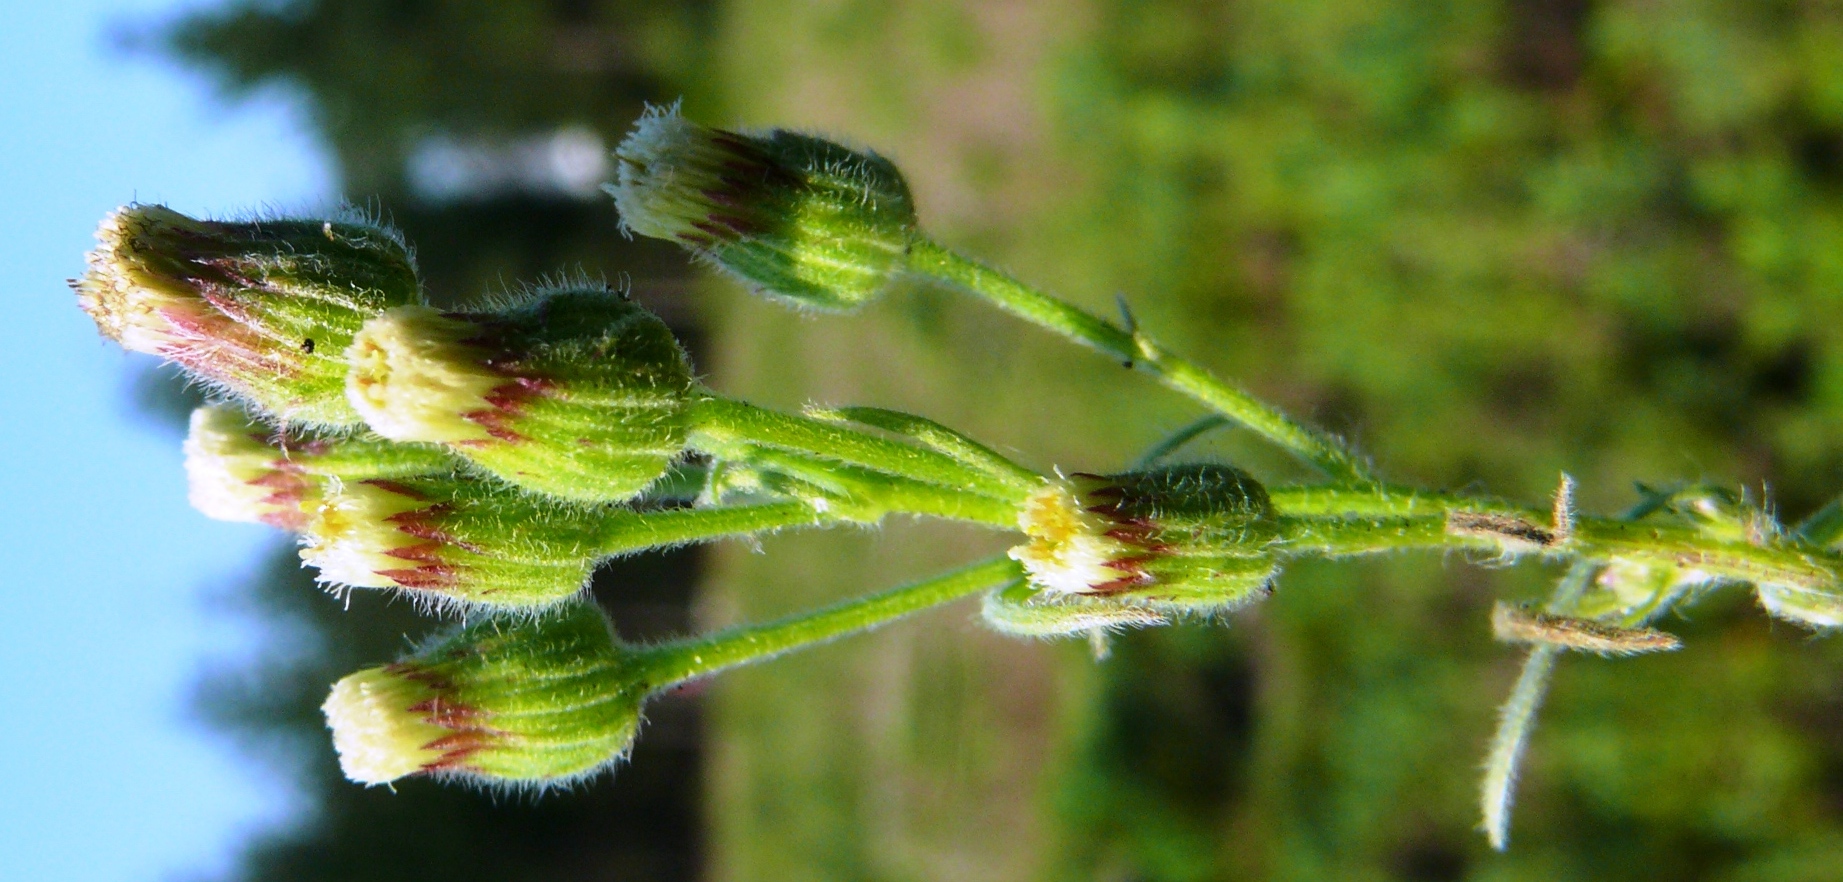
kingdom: Plantae
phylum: Tracheophyta
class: Magnoliopsida
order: Asterales
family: Asteraceae
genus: Erigeron
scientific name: Erigeron bonariensis
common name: Argentine fleabane
